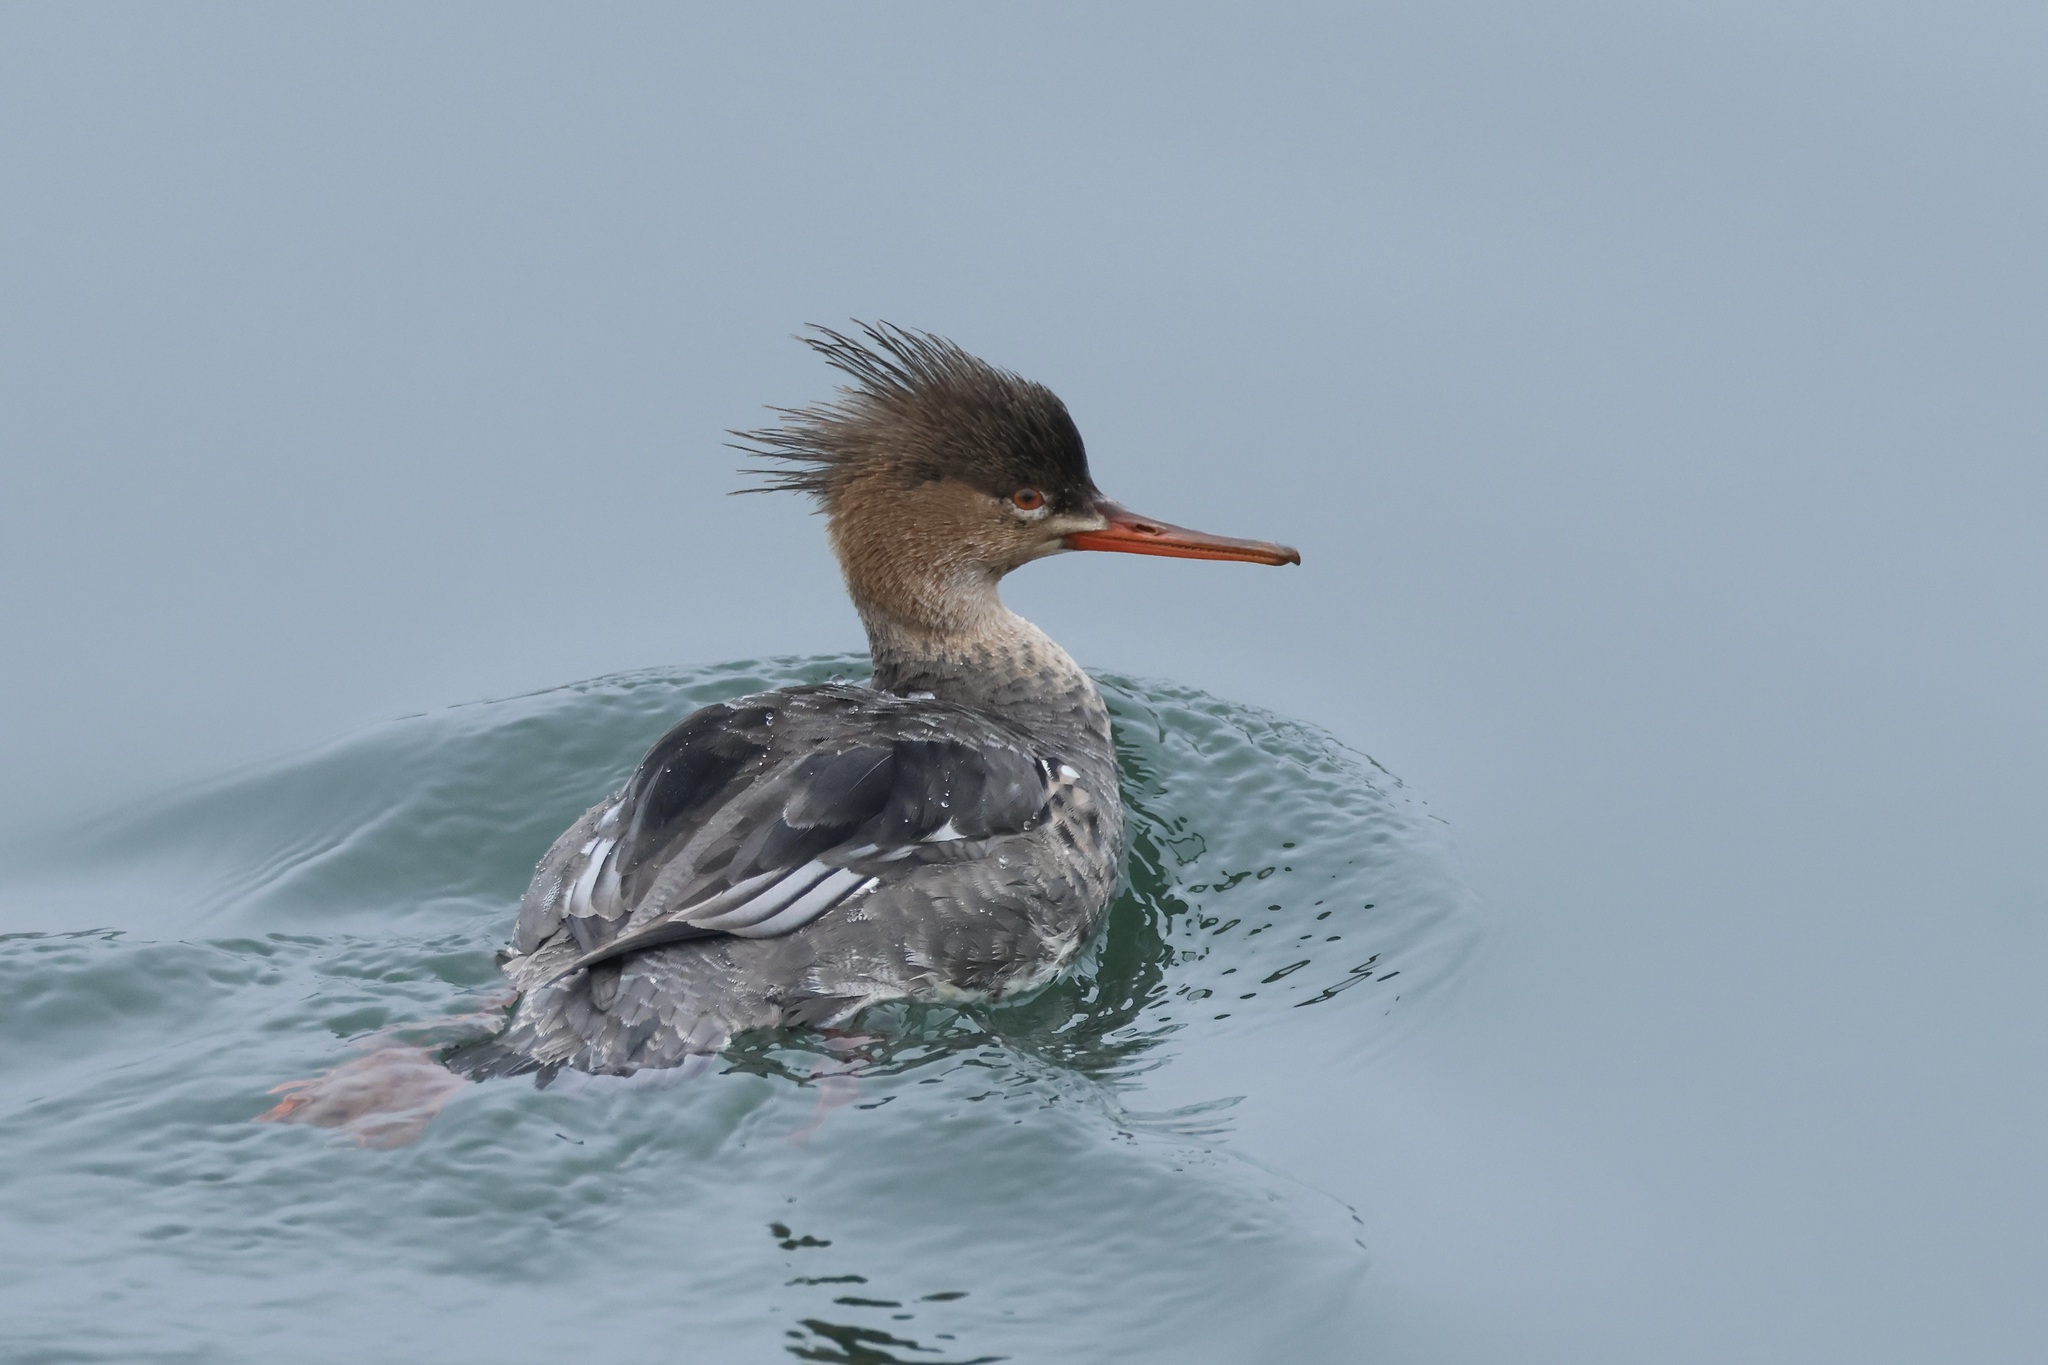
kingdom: Animalia
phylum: Chordata
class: Aves
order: Anseriformes
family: Anatidae
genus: Mergus
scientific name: Mergus serrator
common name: Red-breasted merganser
